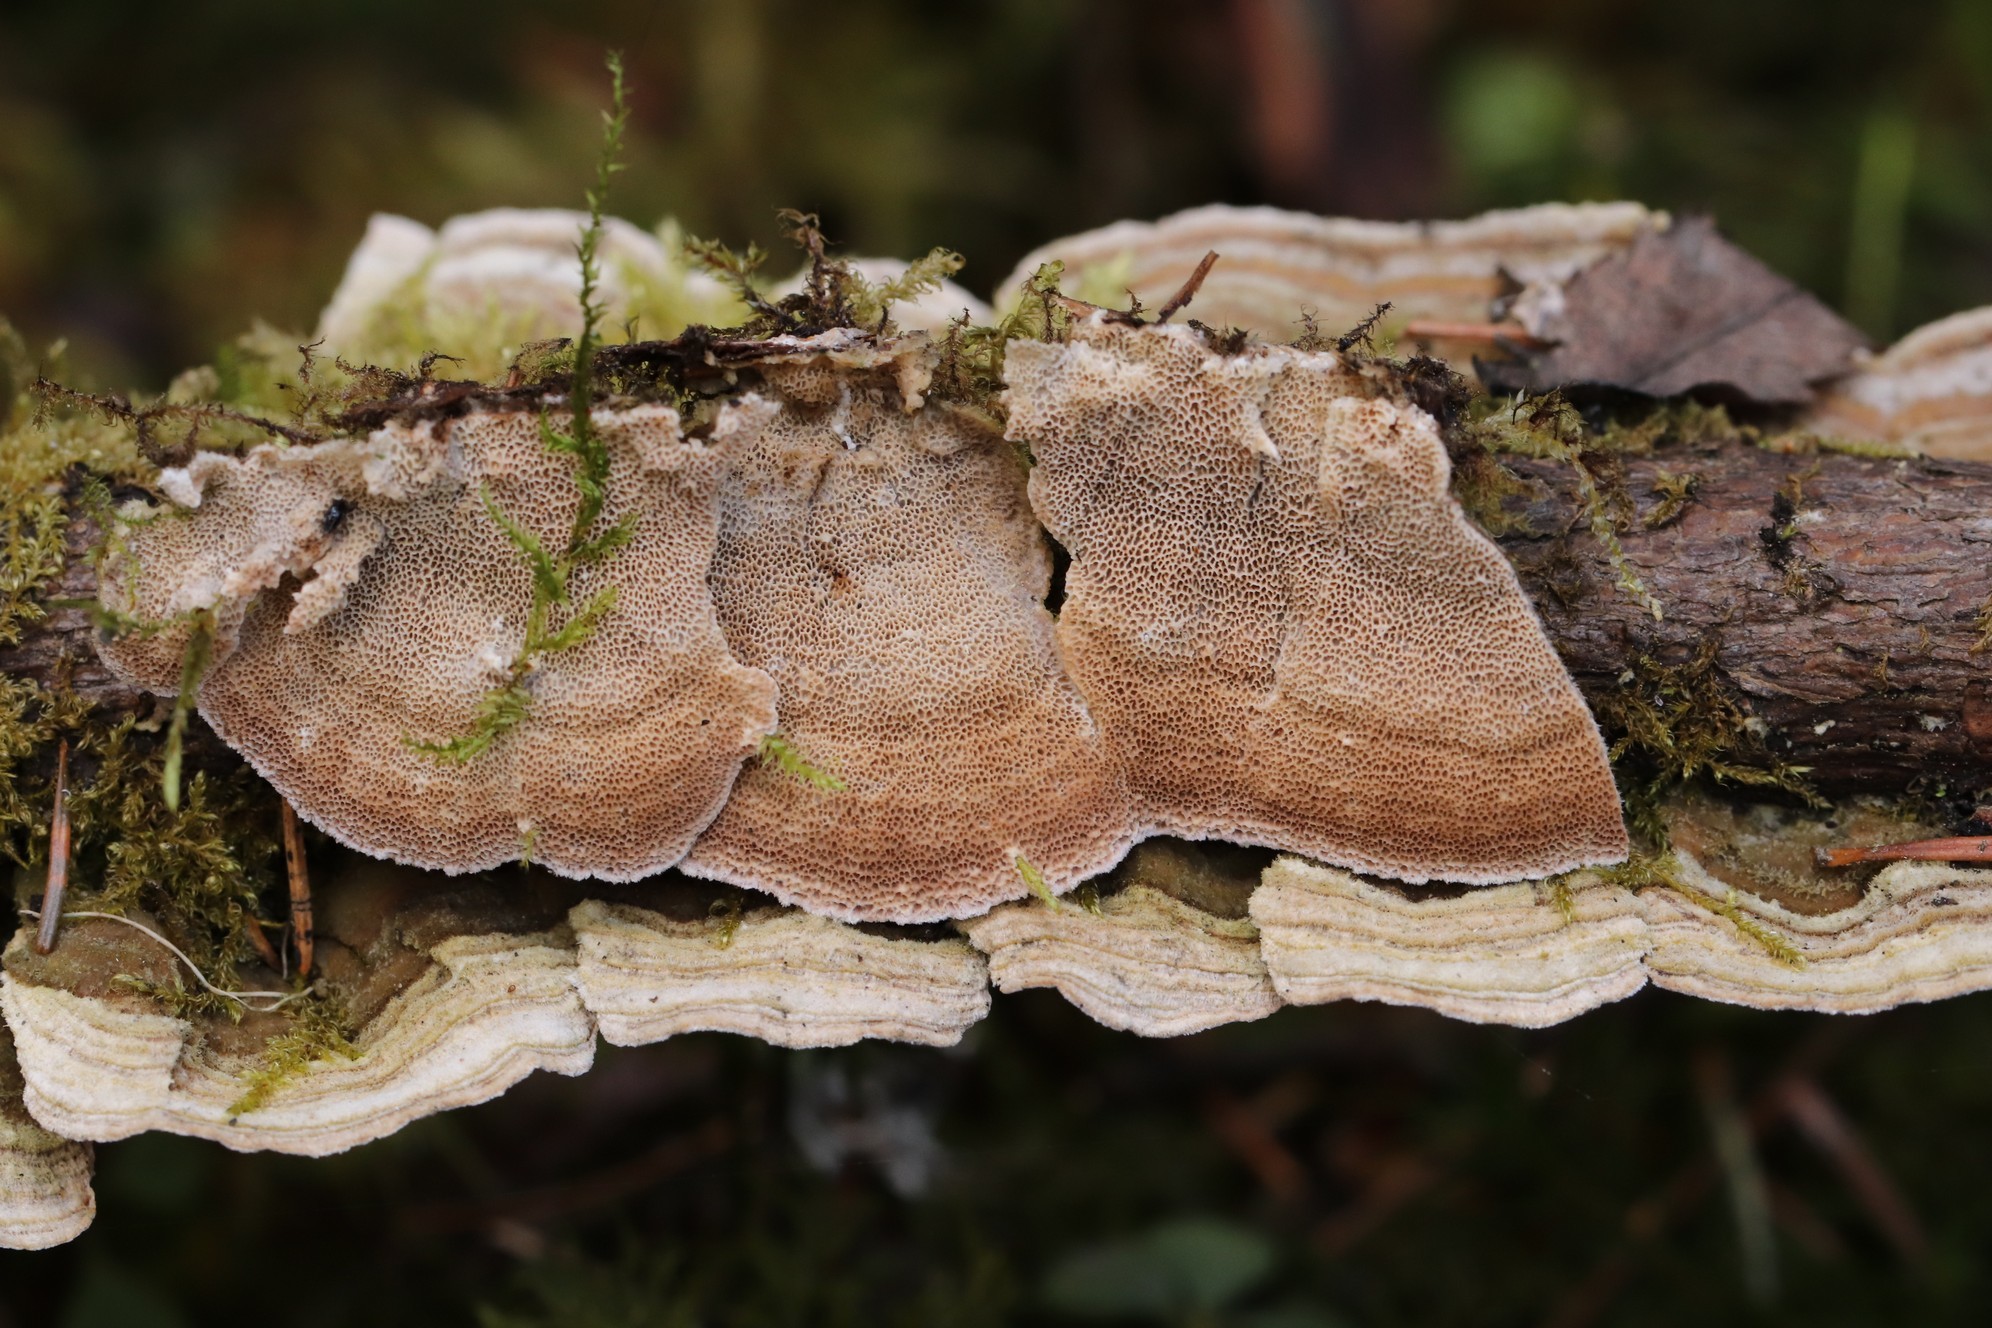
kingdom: Fungi
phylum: Basidiomycota
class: Agaricomycetes
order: Hymenochaetales
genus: Trichaptum
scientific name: Trichaptum abietinum
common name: Purplepore bracket
